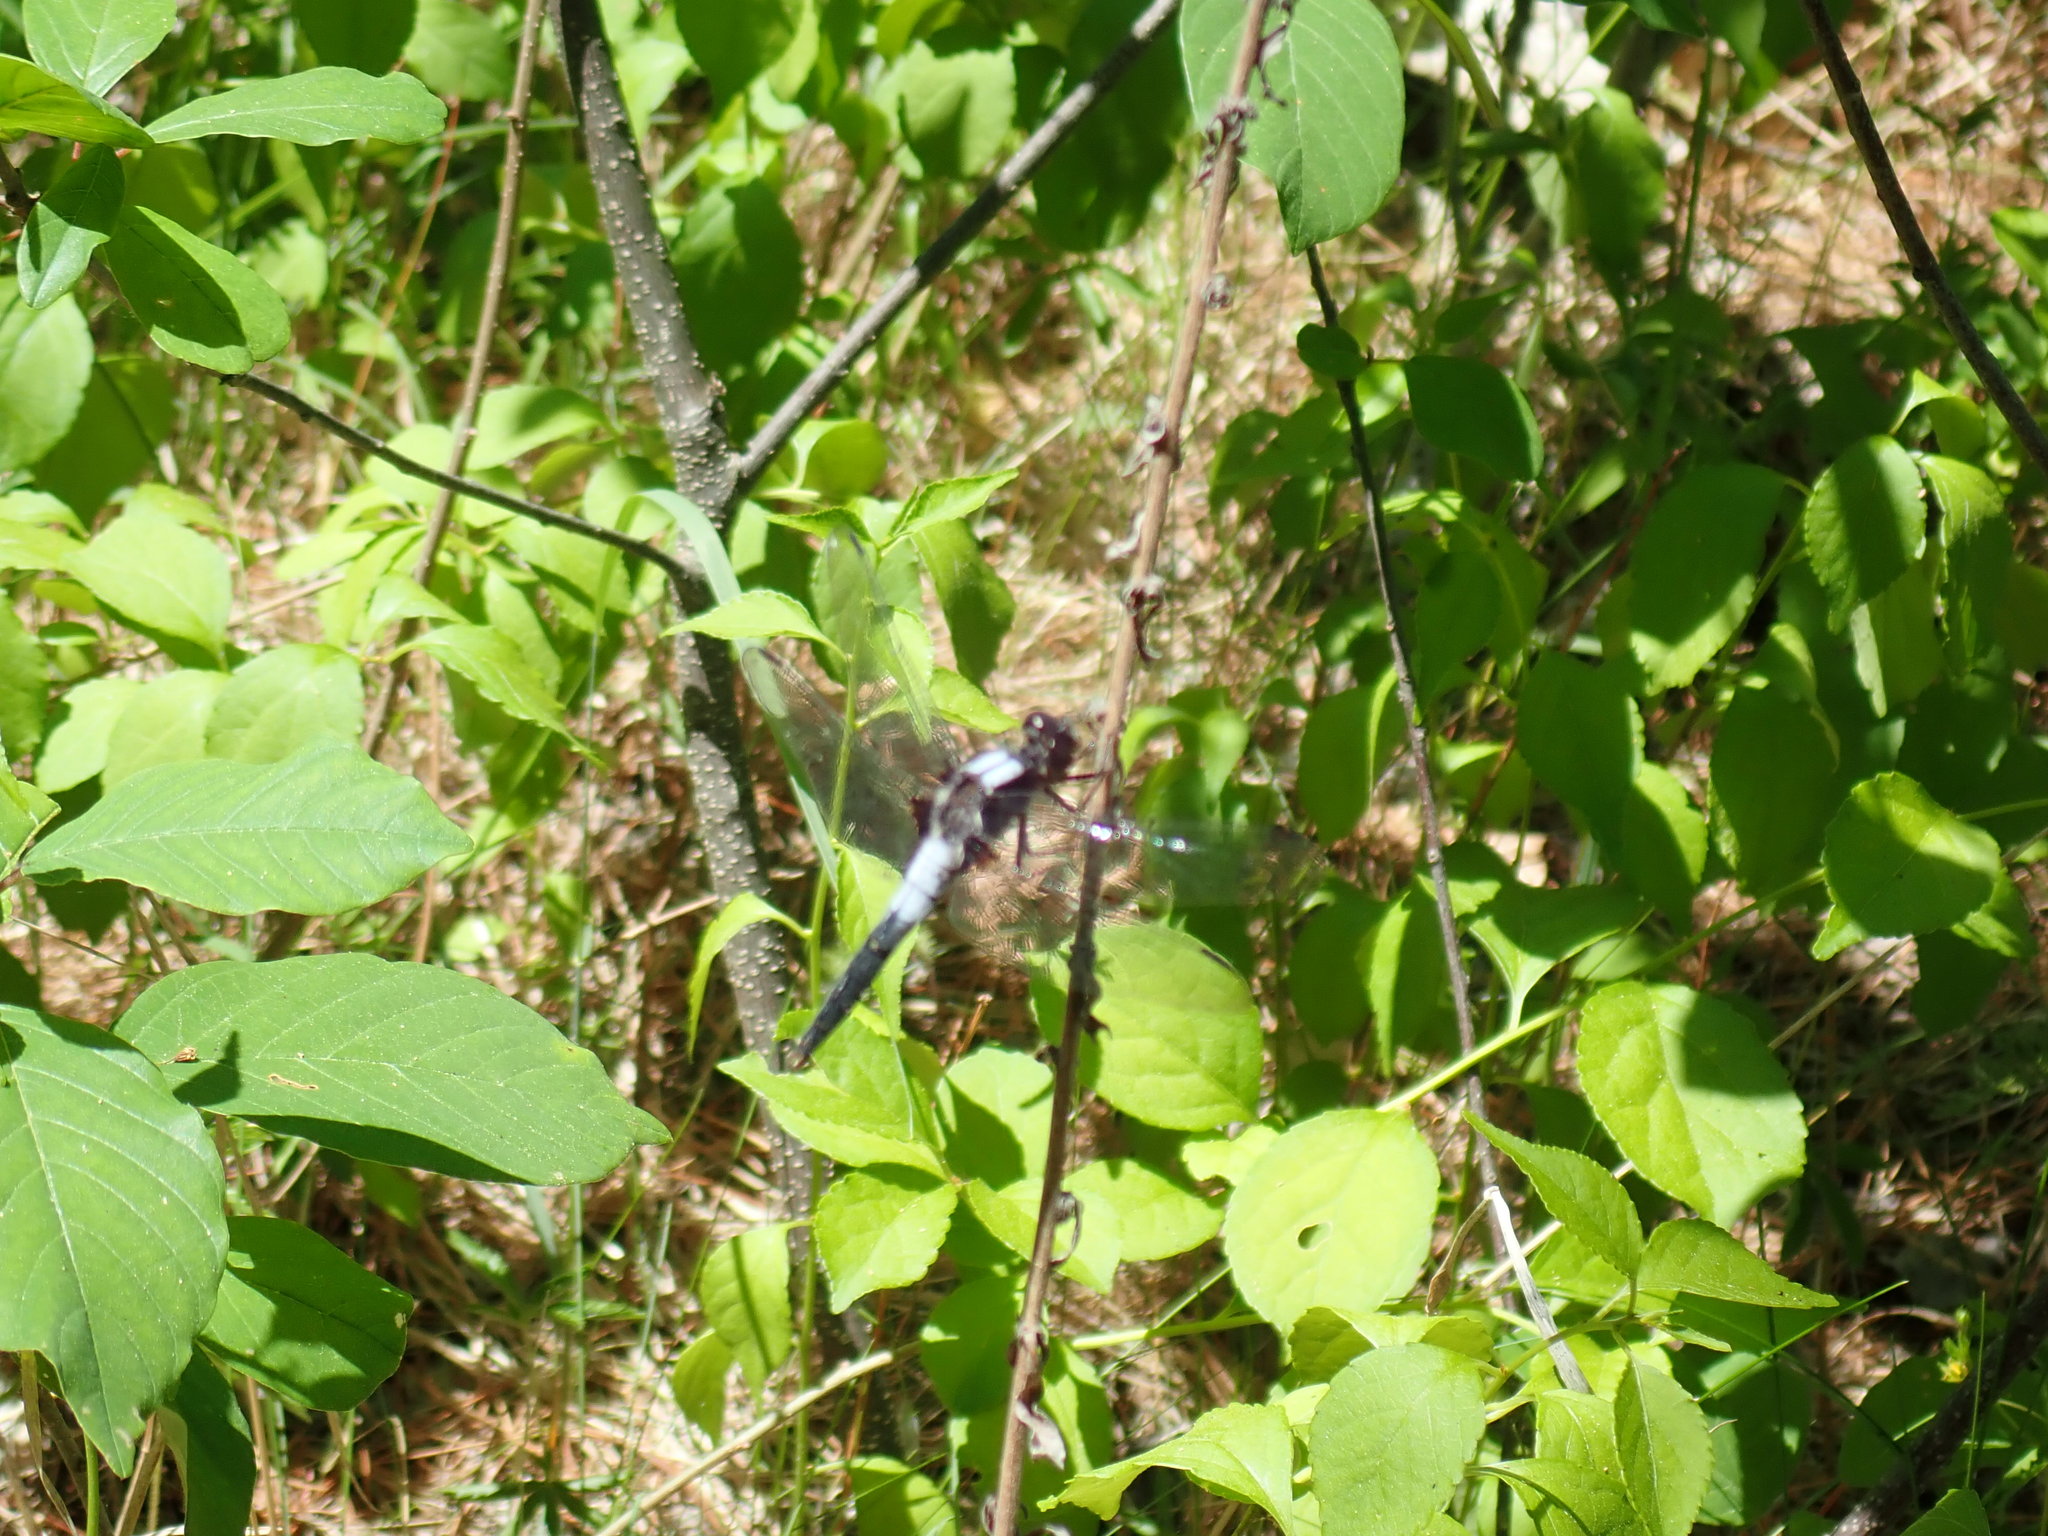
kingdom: Animalia
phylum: Arthropoda
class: Insecta
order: Odonata
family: Libellulidae
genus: Ladona
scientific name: Ladona julia
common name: Chalk-fronted corporal
